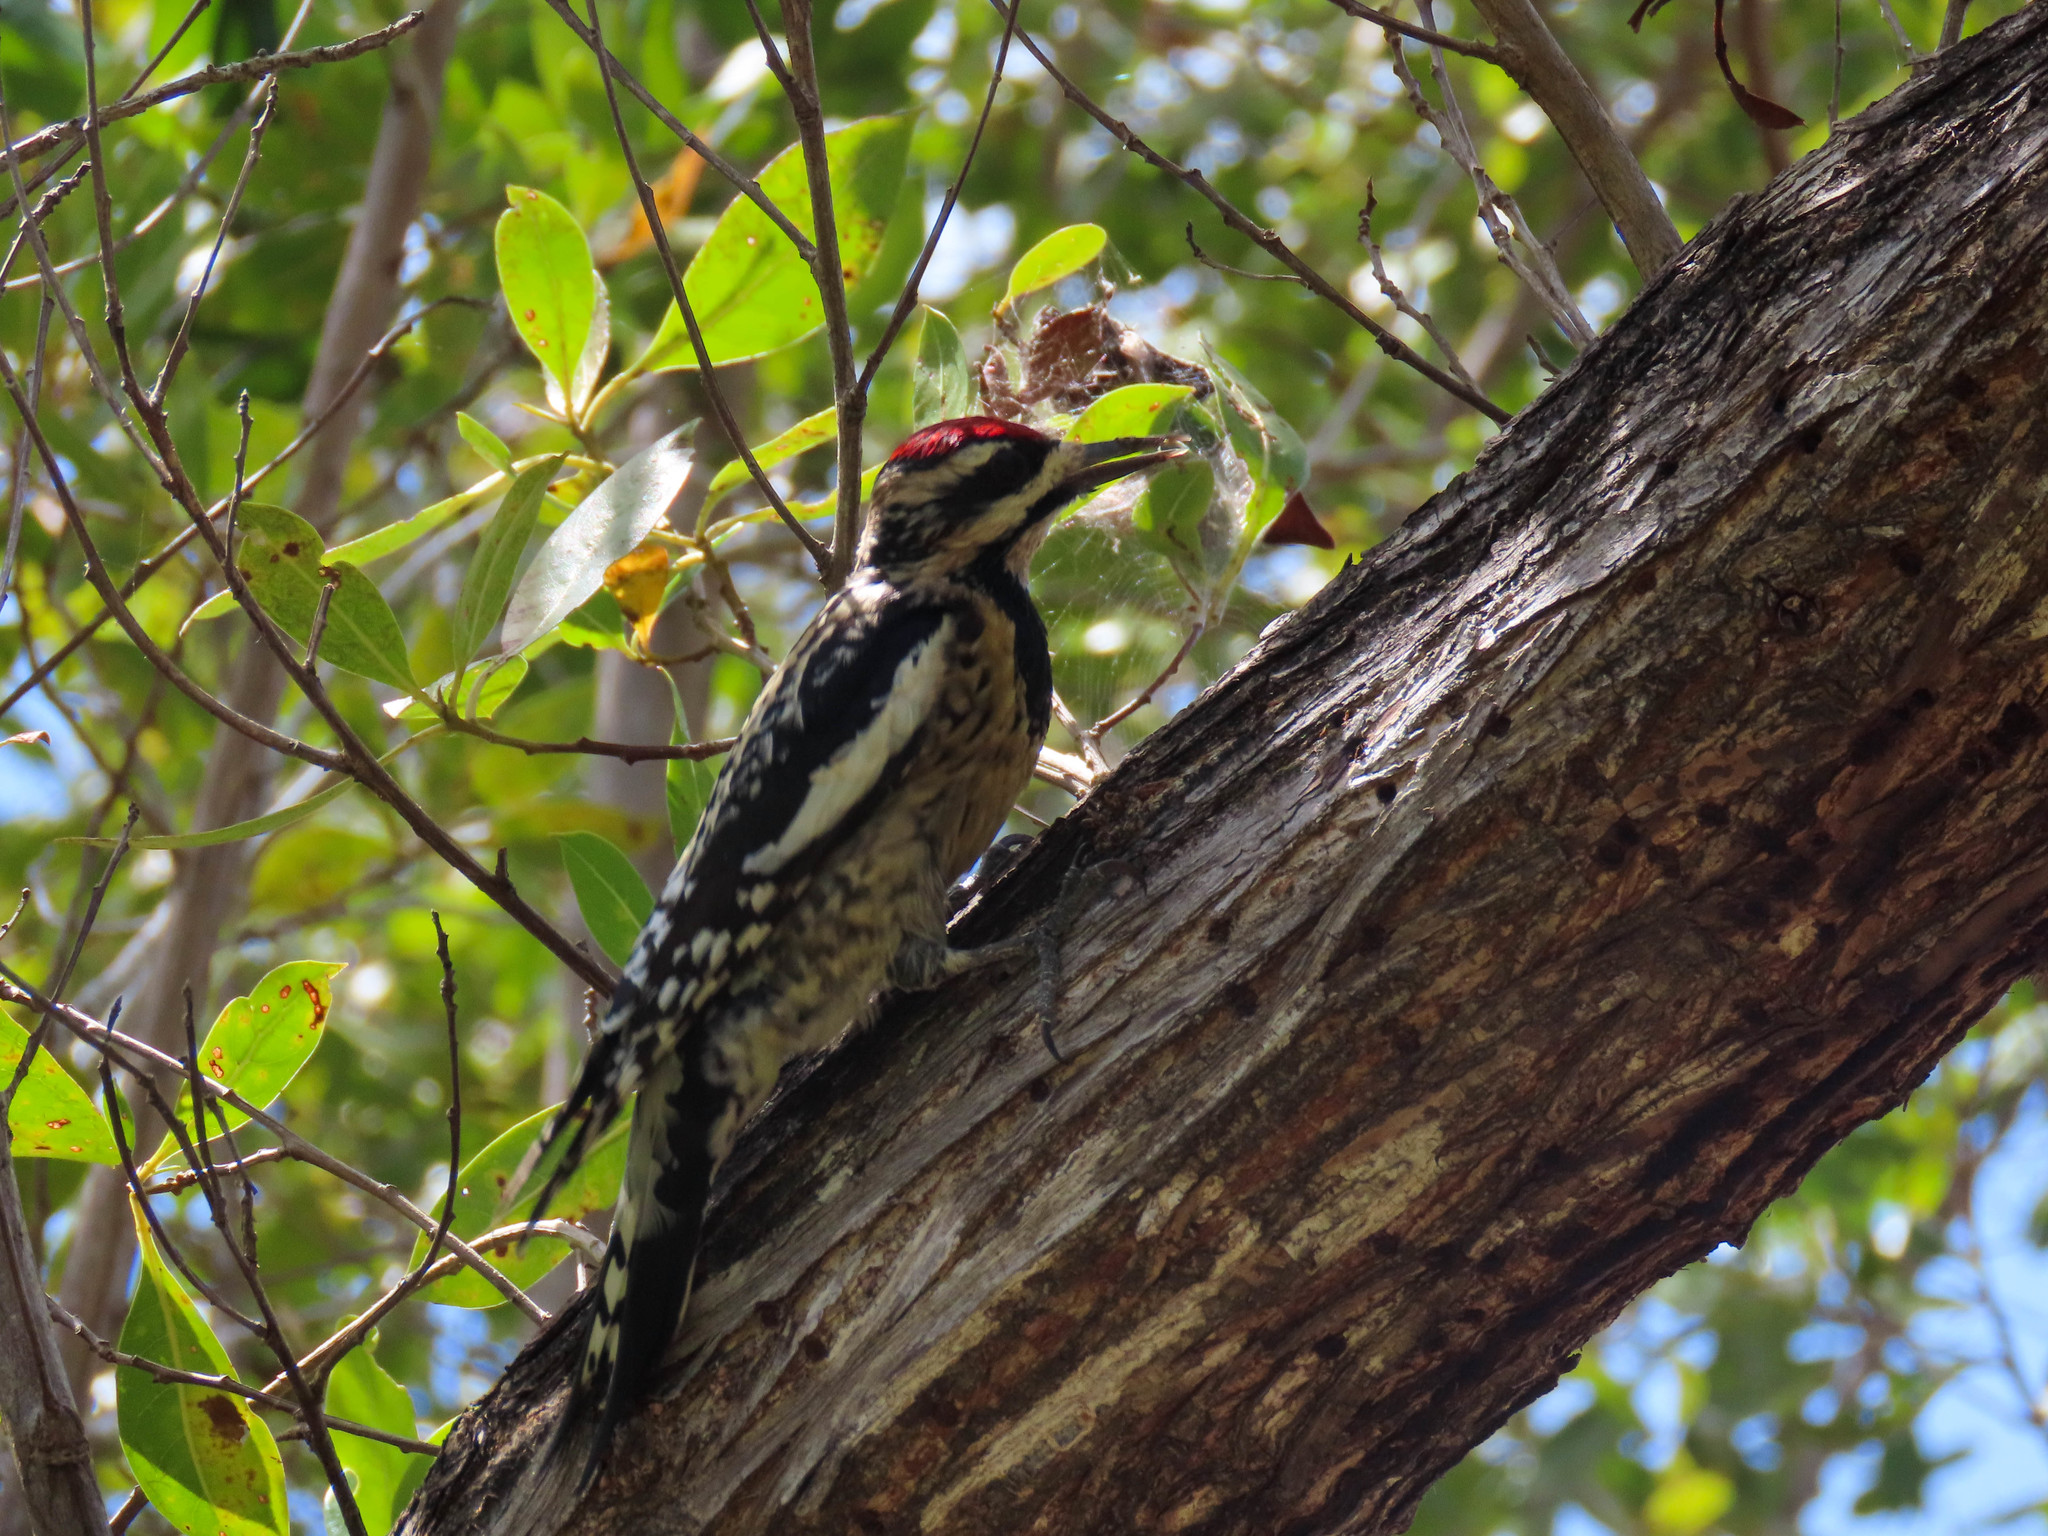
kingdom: Animalia
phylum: Chordata
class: Aves
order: Piciformes
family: Picidae
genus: Sphyrapicus
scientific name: Sphyrapicus varius
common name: Yellow-bellied sapsucker
